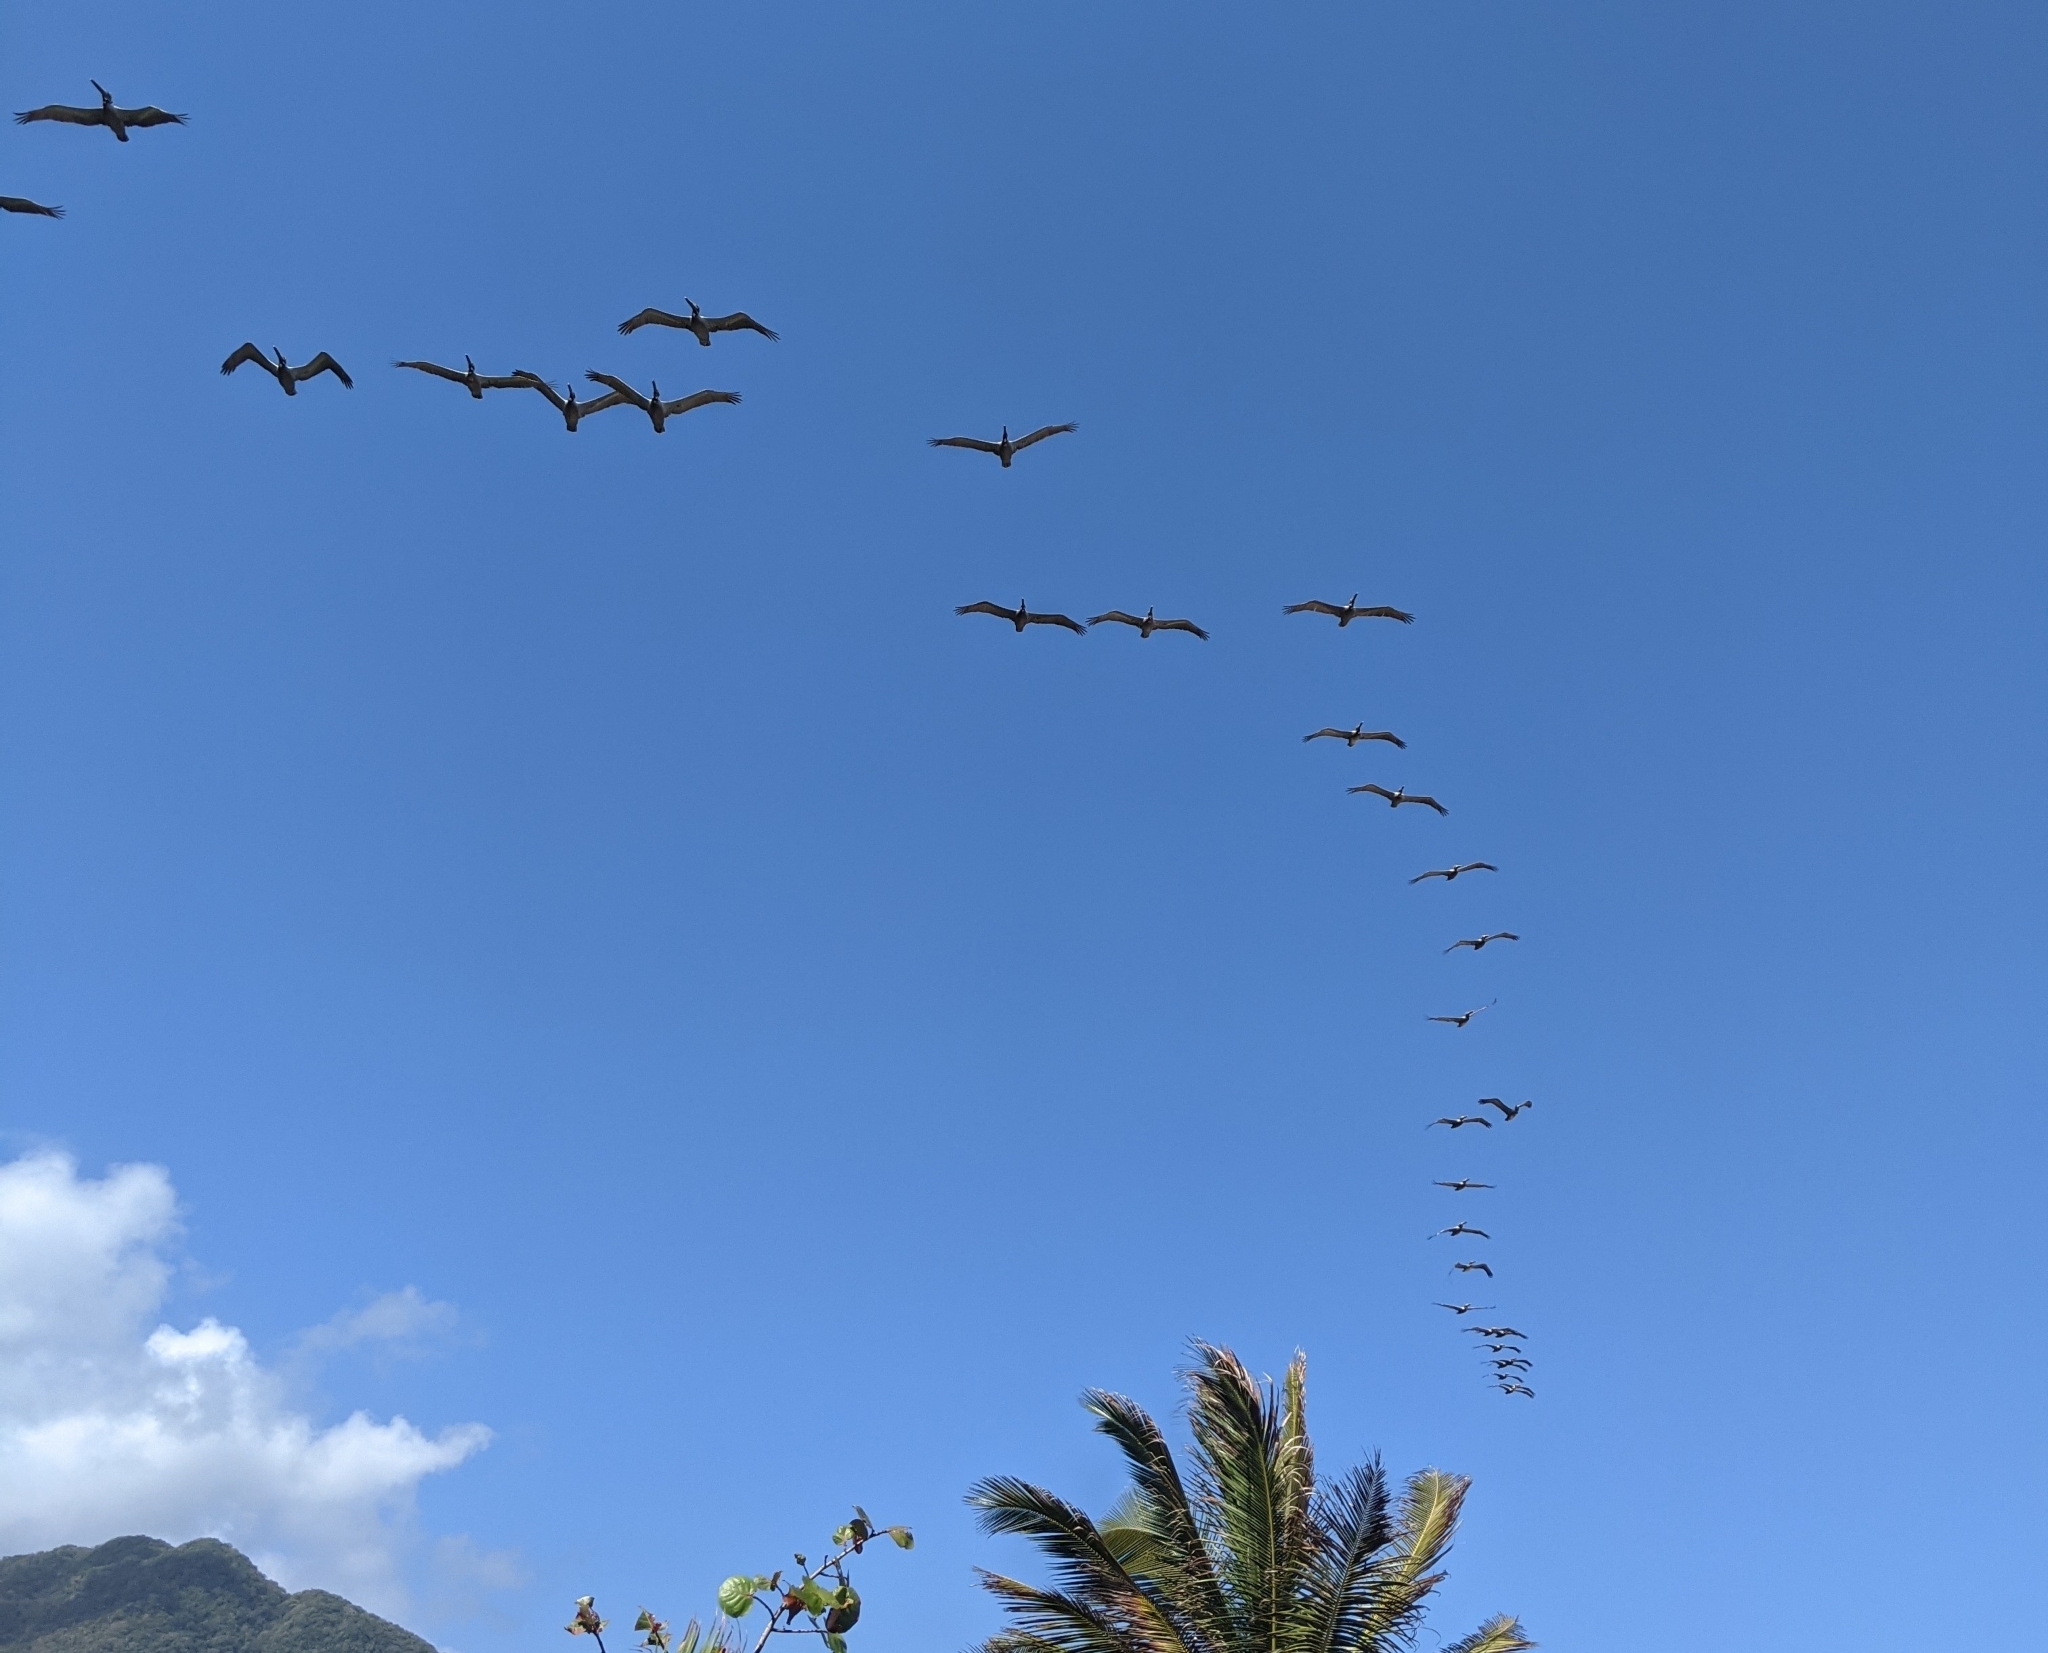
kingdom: Animalia
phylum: Chordata
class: Aves
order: Pelecaniformes
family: Pelecanidae
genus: Pelecanus
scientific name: Pelecanus occidentalis
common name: Brown pelican
